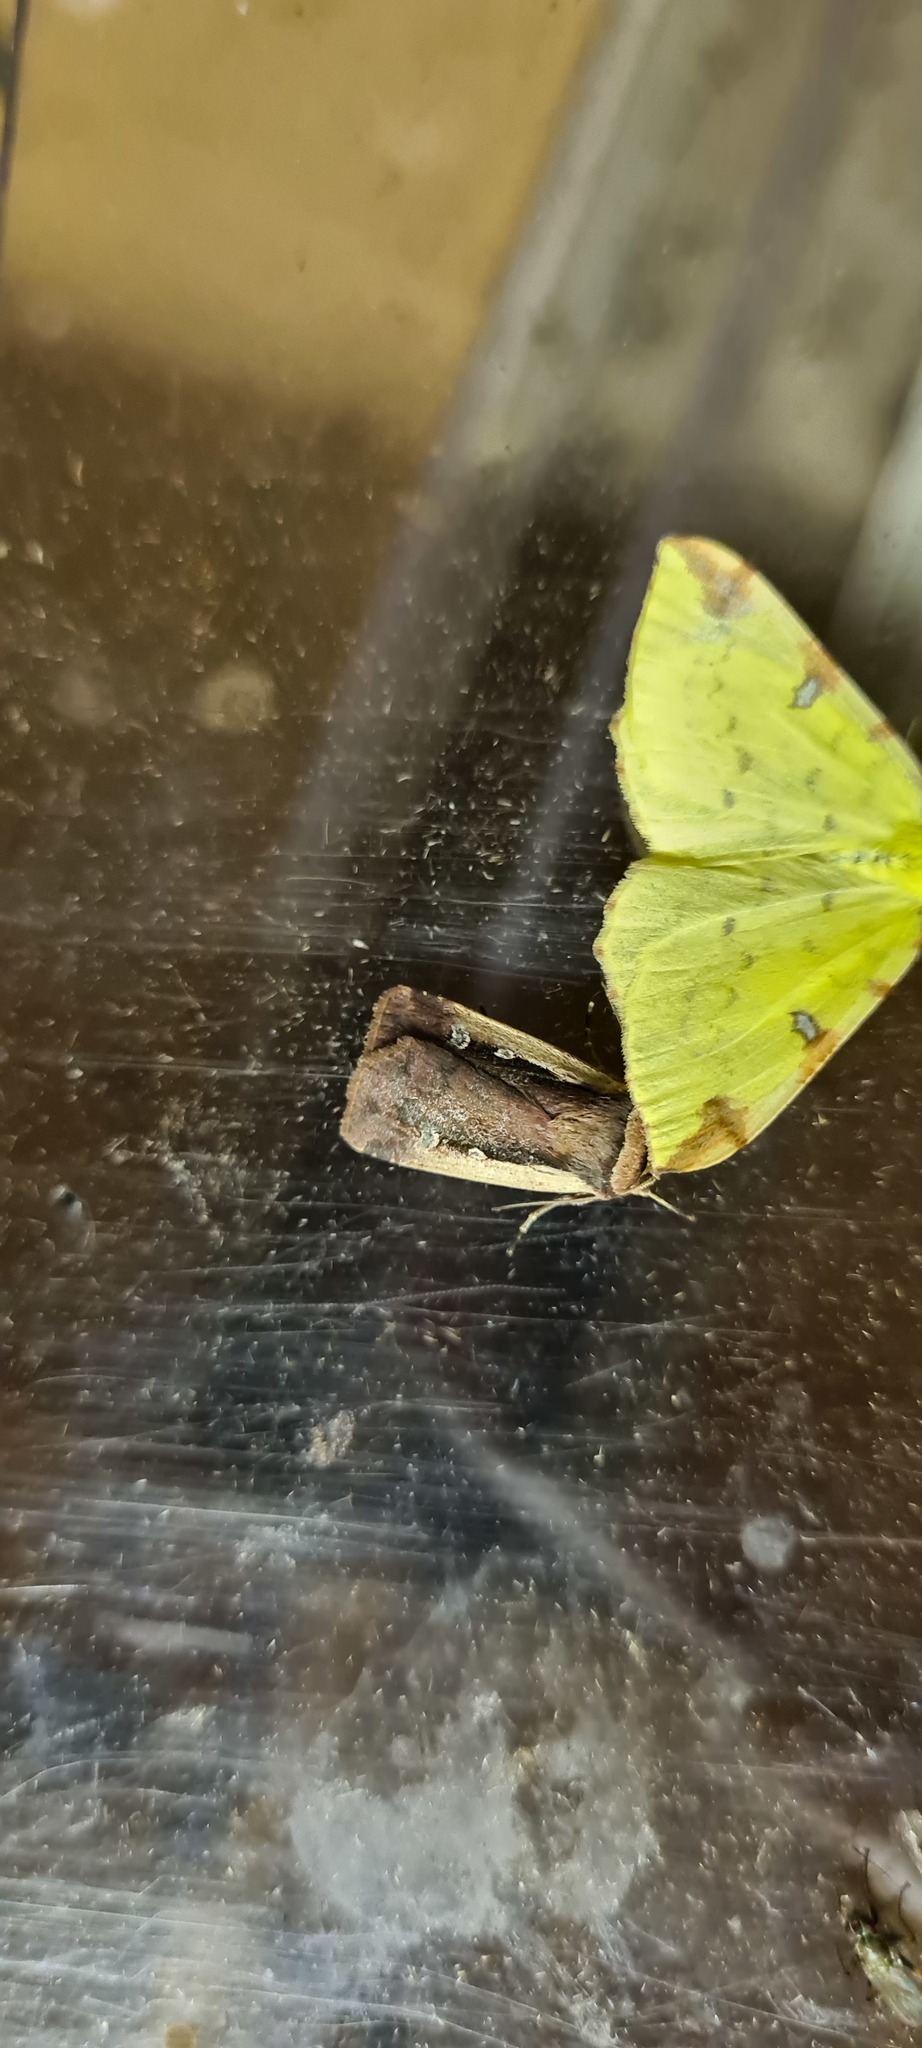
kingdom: Animalia
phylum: Arthropoda
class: Insecta
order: Lepidoptera
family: Noctuidae
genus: Ochropleura
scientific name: Ochropleura plecta
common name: Flame shoulder
